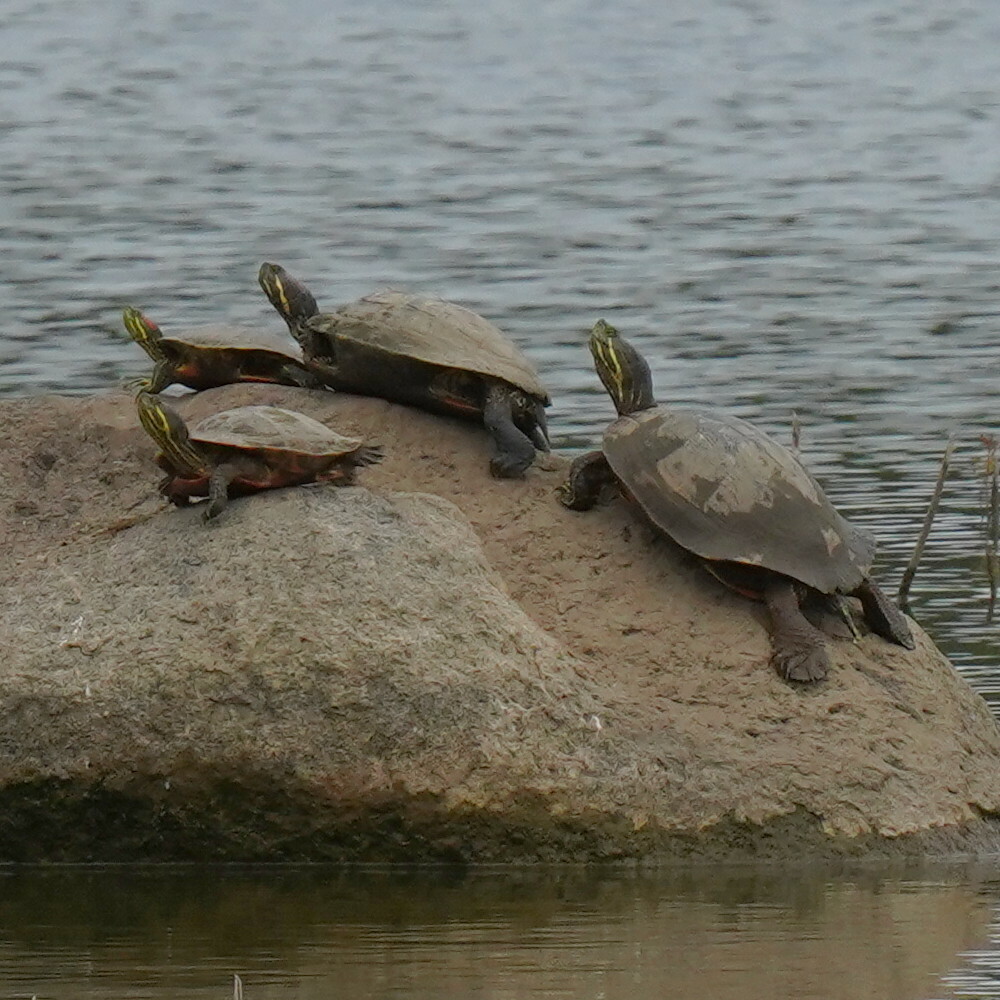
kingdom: Animalia
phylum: Chordata
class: Testudines
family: Emydidae
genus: Chrysemys
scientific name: Chrysemys picta
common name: Painted turtle
